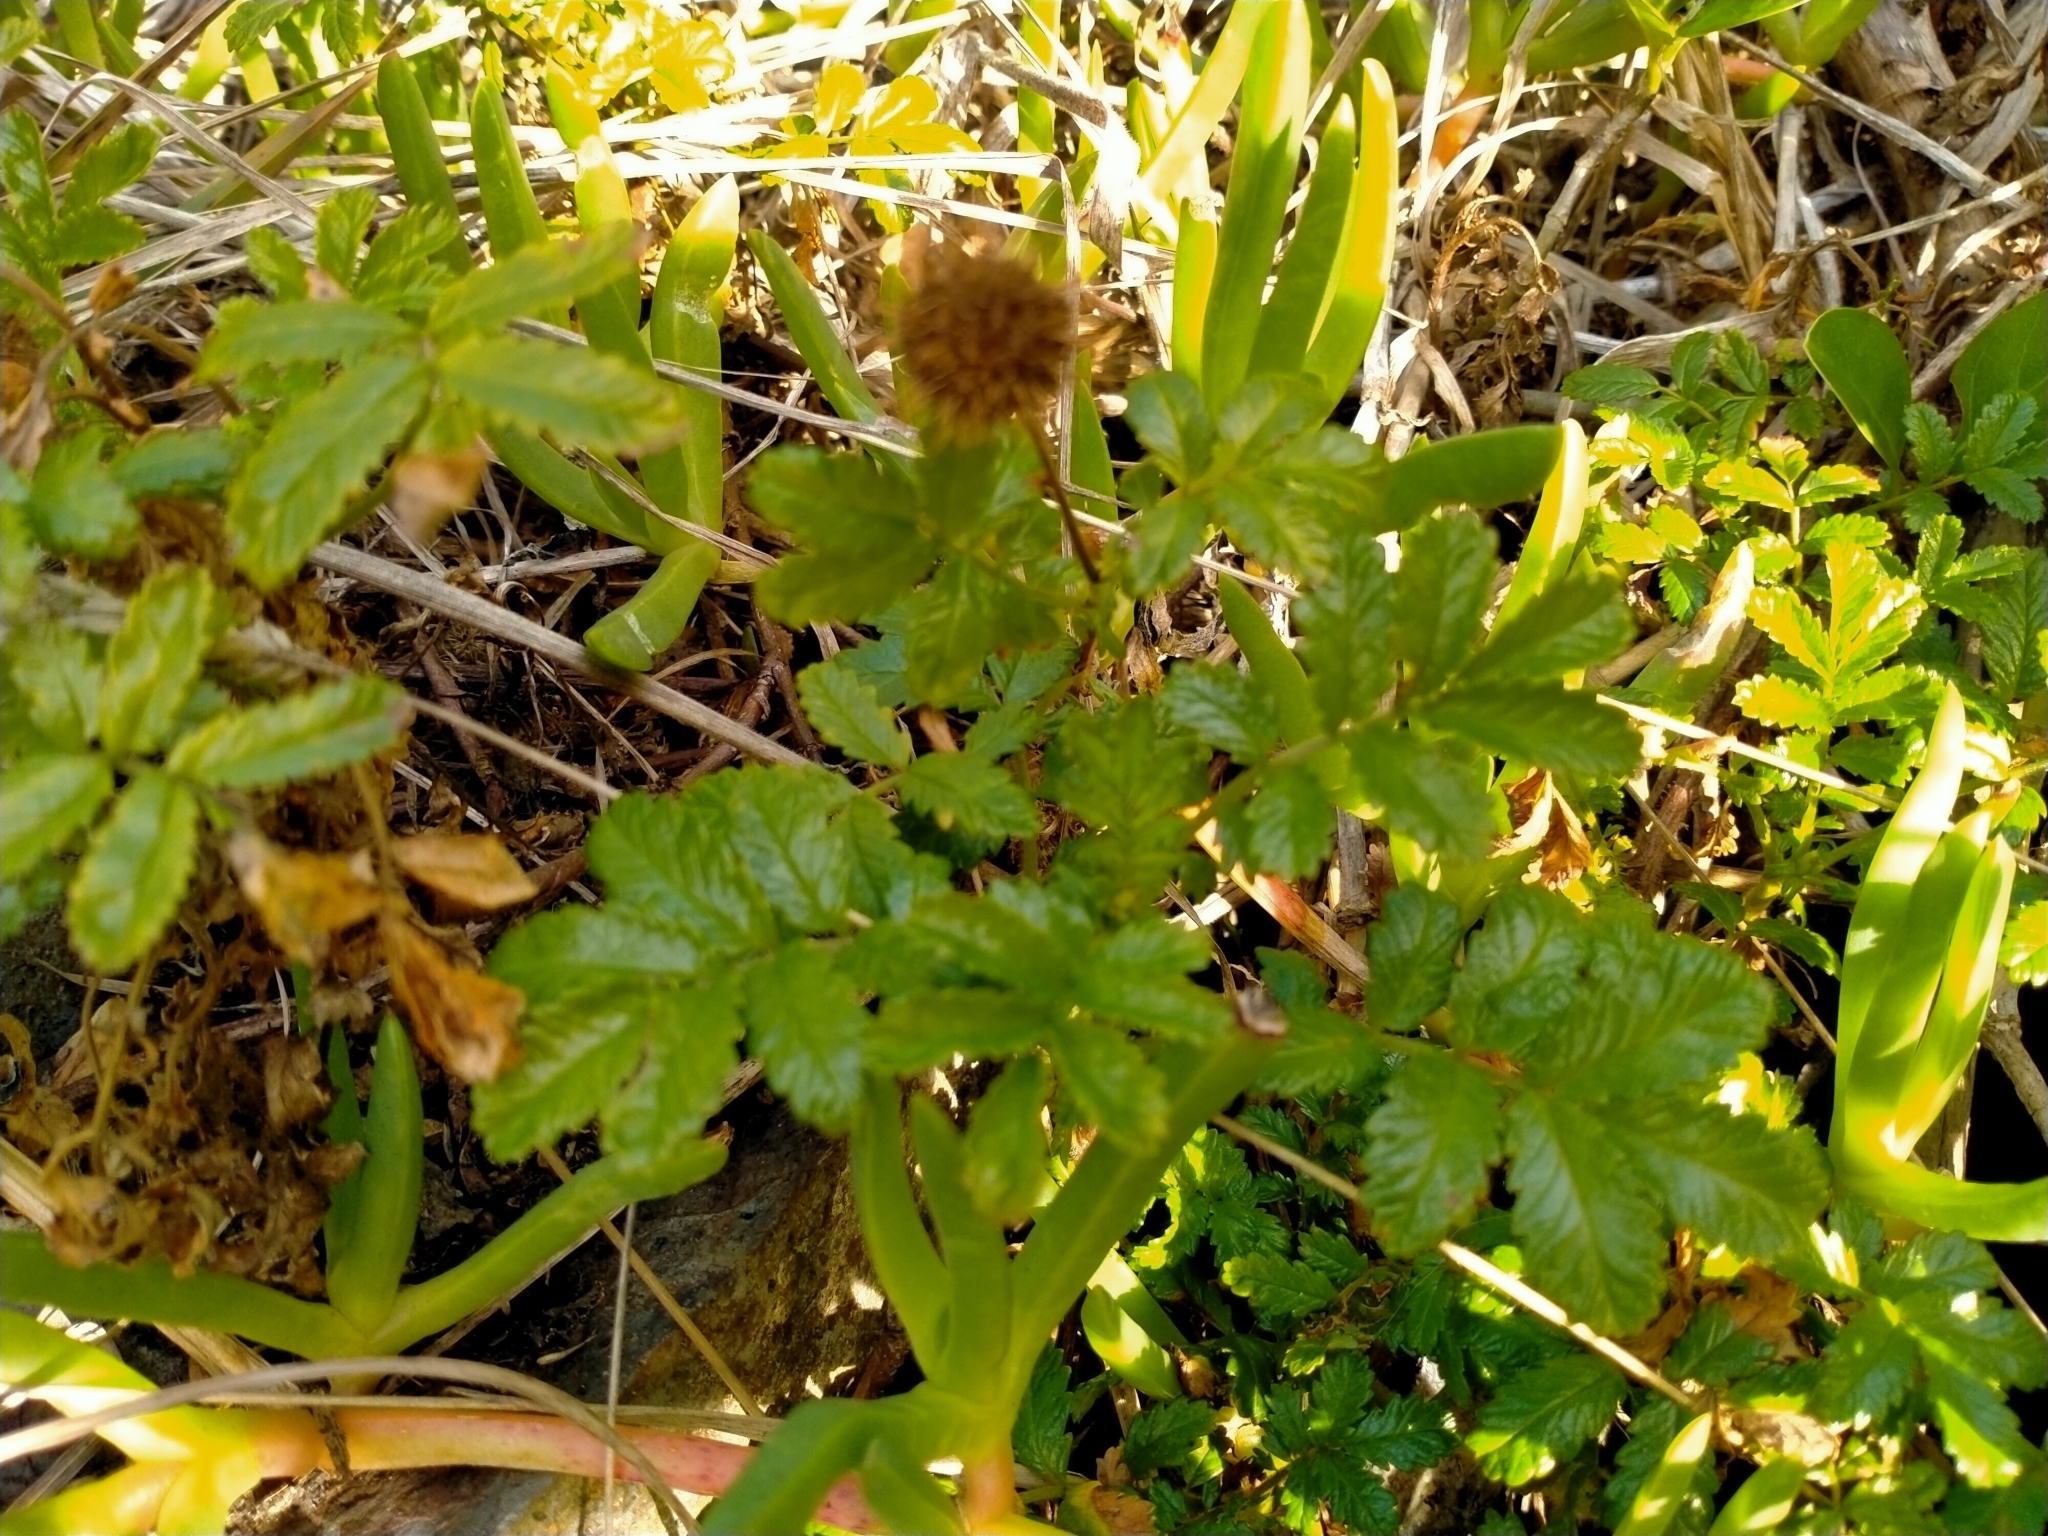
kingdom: Plantae
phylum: Tracheophyta
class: Magnoliopsida
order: Rosales
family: Rosaceae
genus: Acaena
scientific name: Acaena pallida
